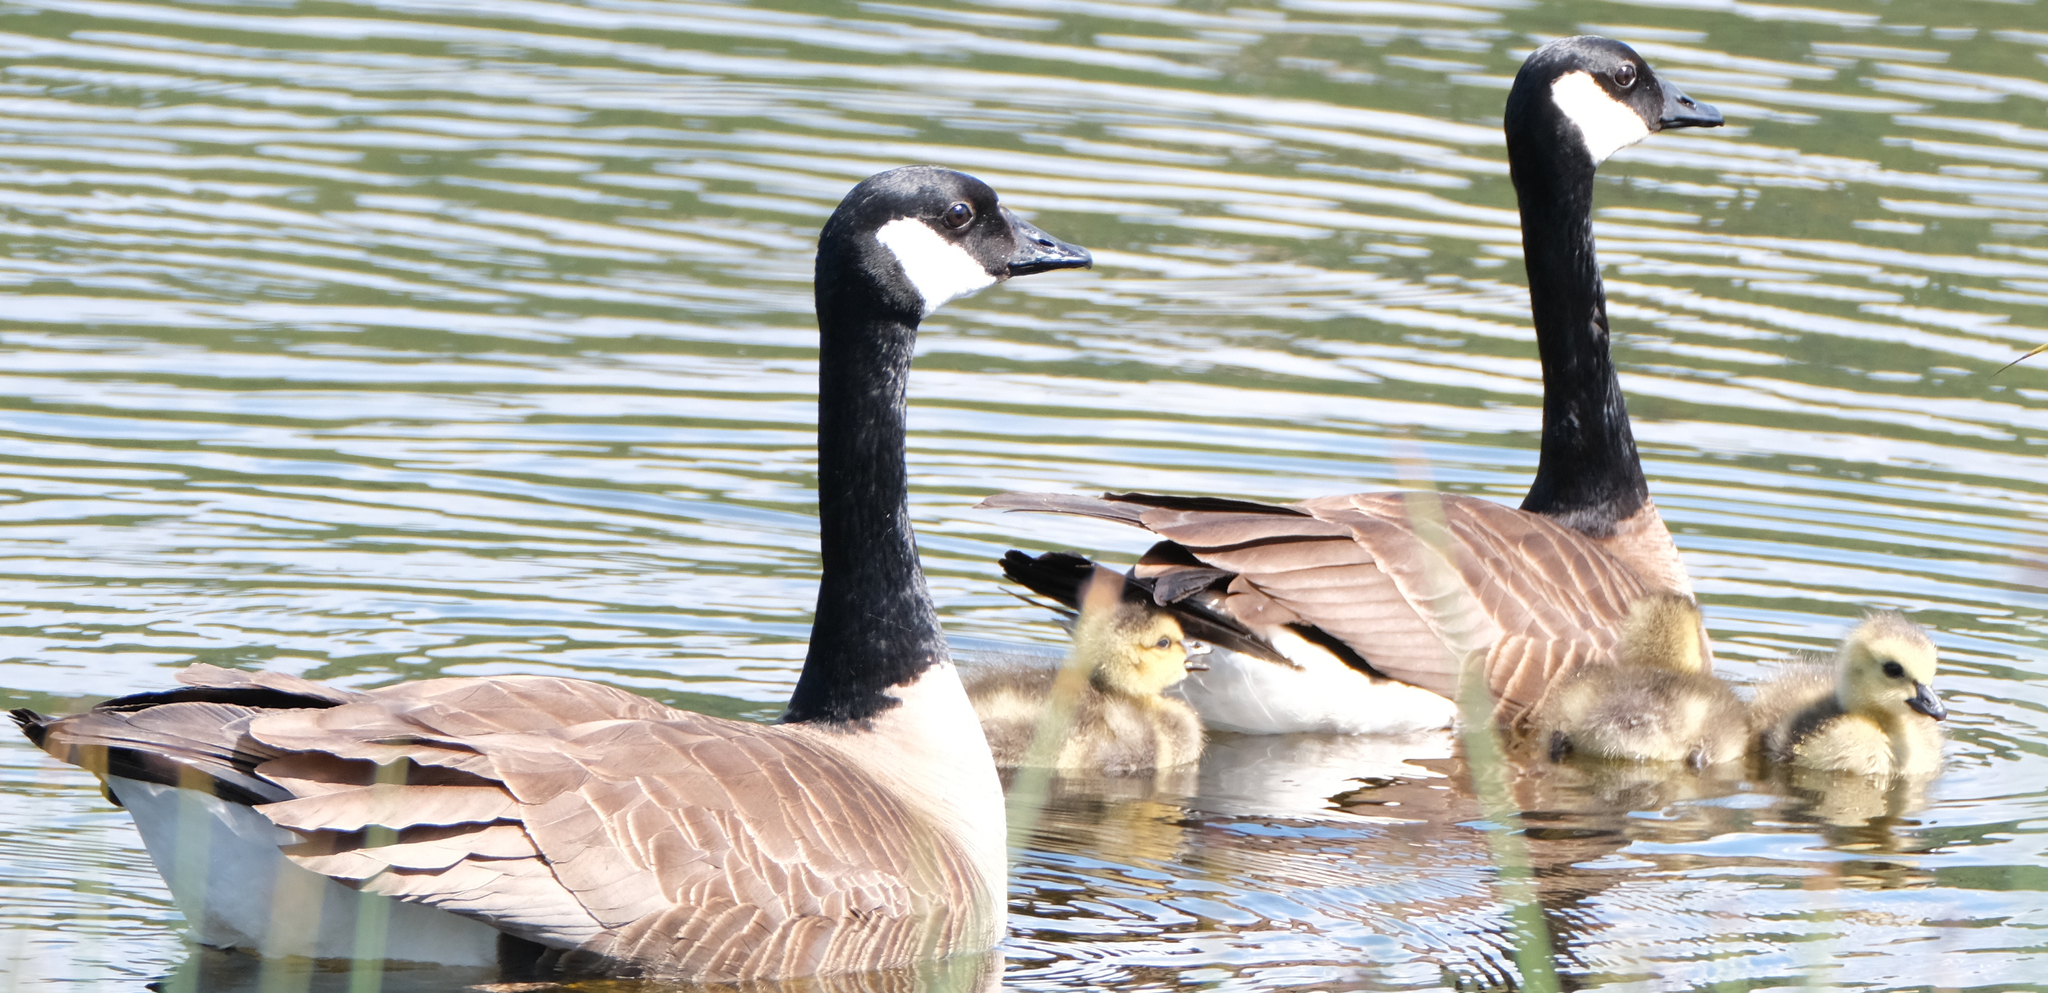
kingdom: Animalia
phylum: Chordata
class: Aves
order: Anseriformes
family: Anatidae
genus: Branta
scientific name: Branta canadensis
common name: Canada goose
